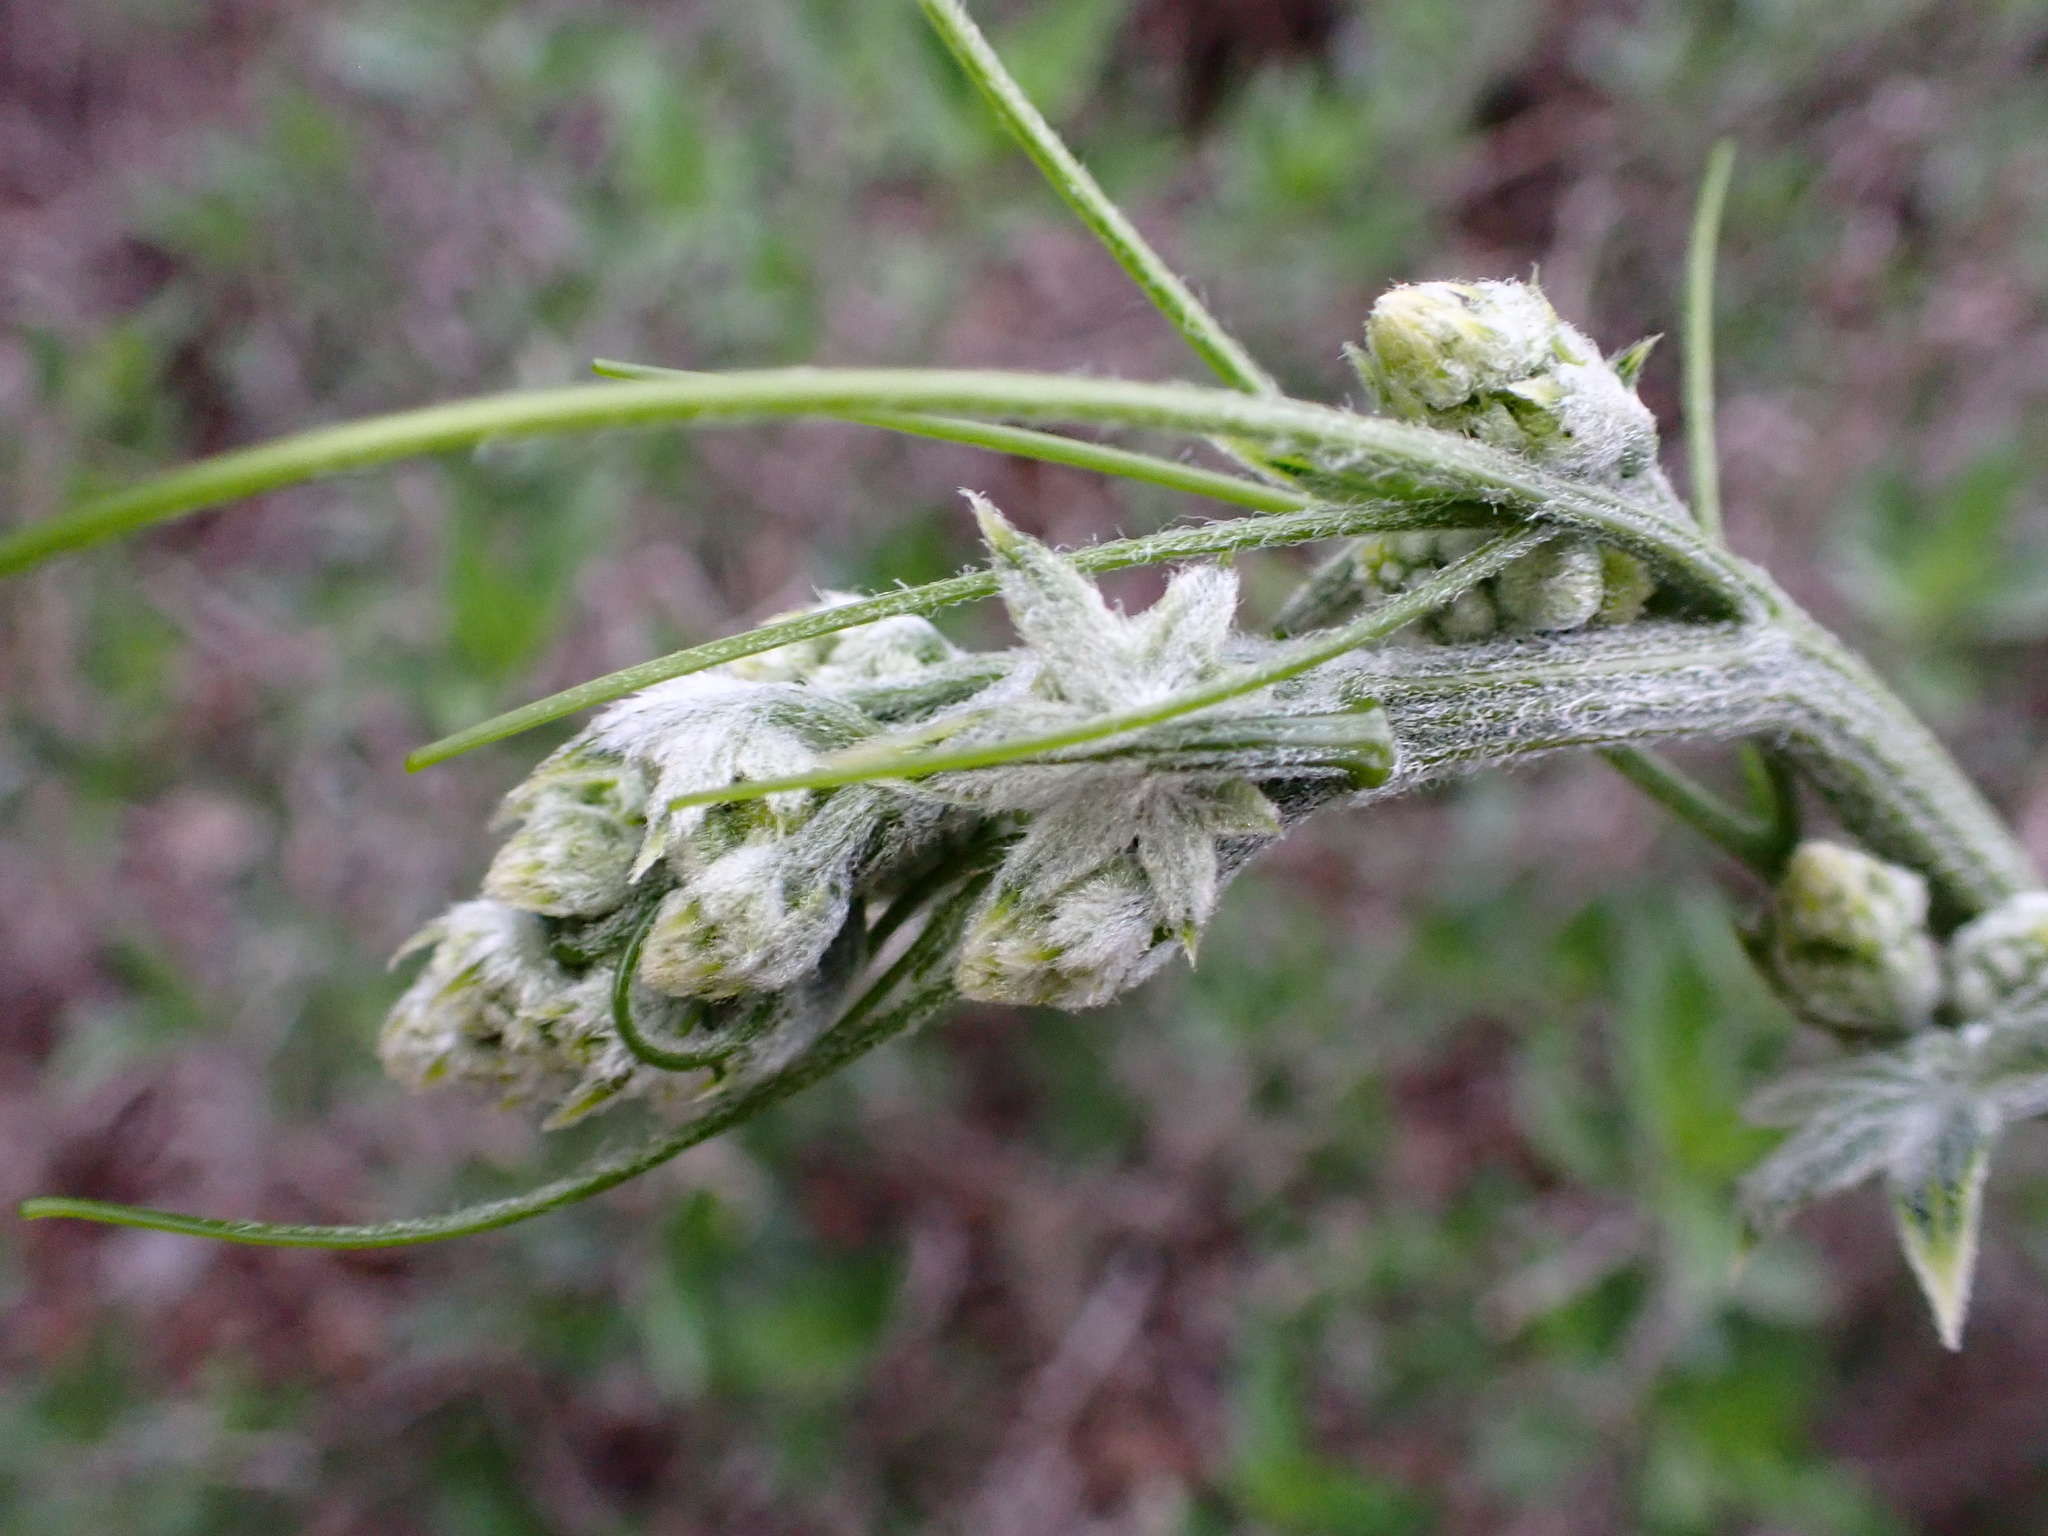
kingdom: Plantae
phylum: Tracheophyta
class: Magnoliopsida
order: Cucurbitales
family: Cucurbitaceae
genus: Marah
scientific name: Marah macrocarpa
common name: Cucamonga manroot
